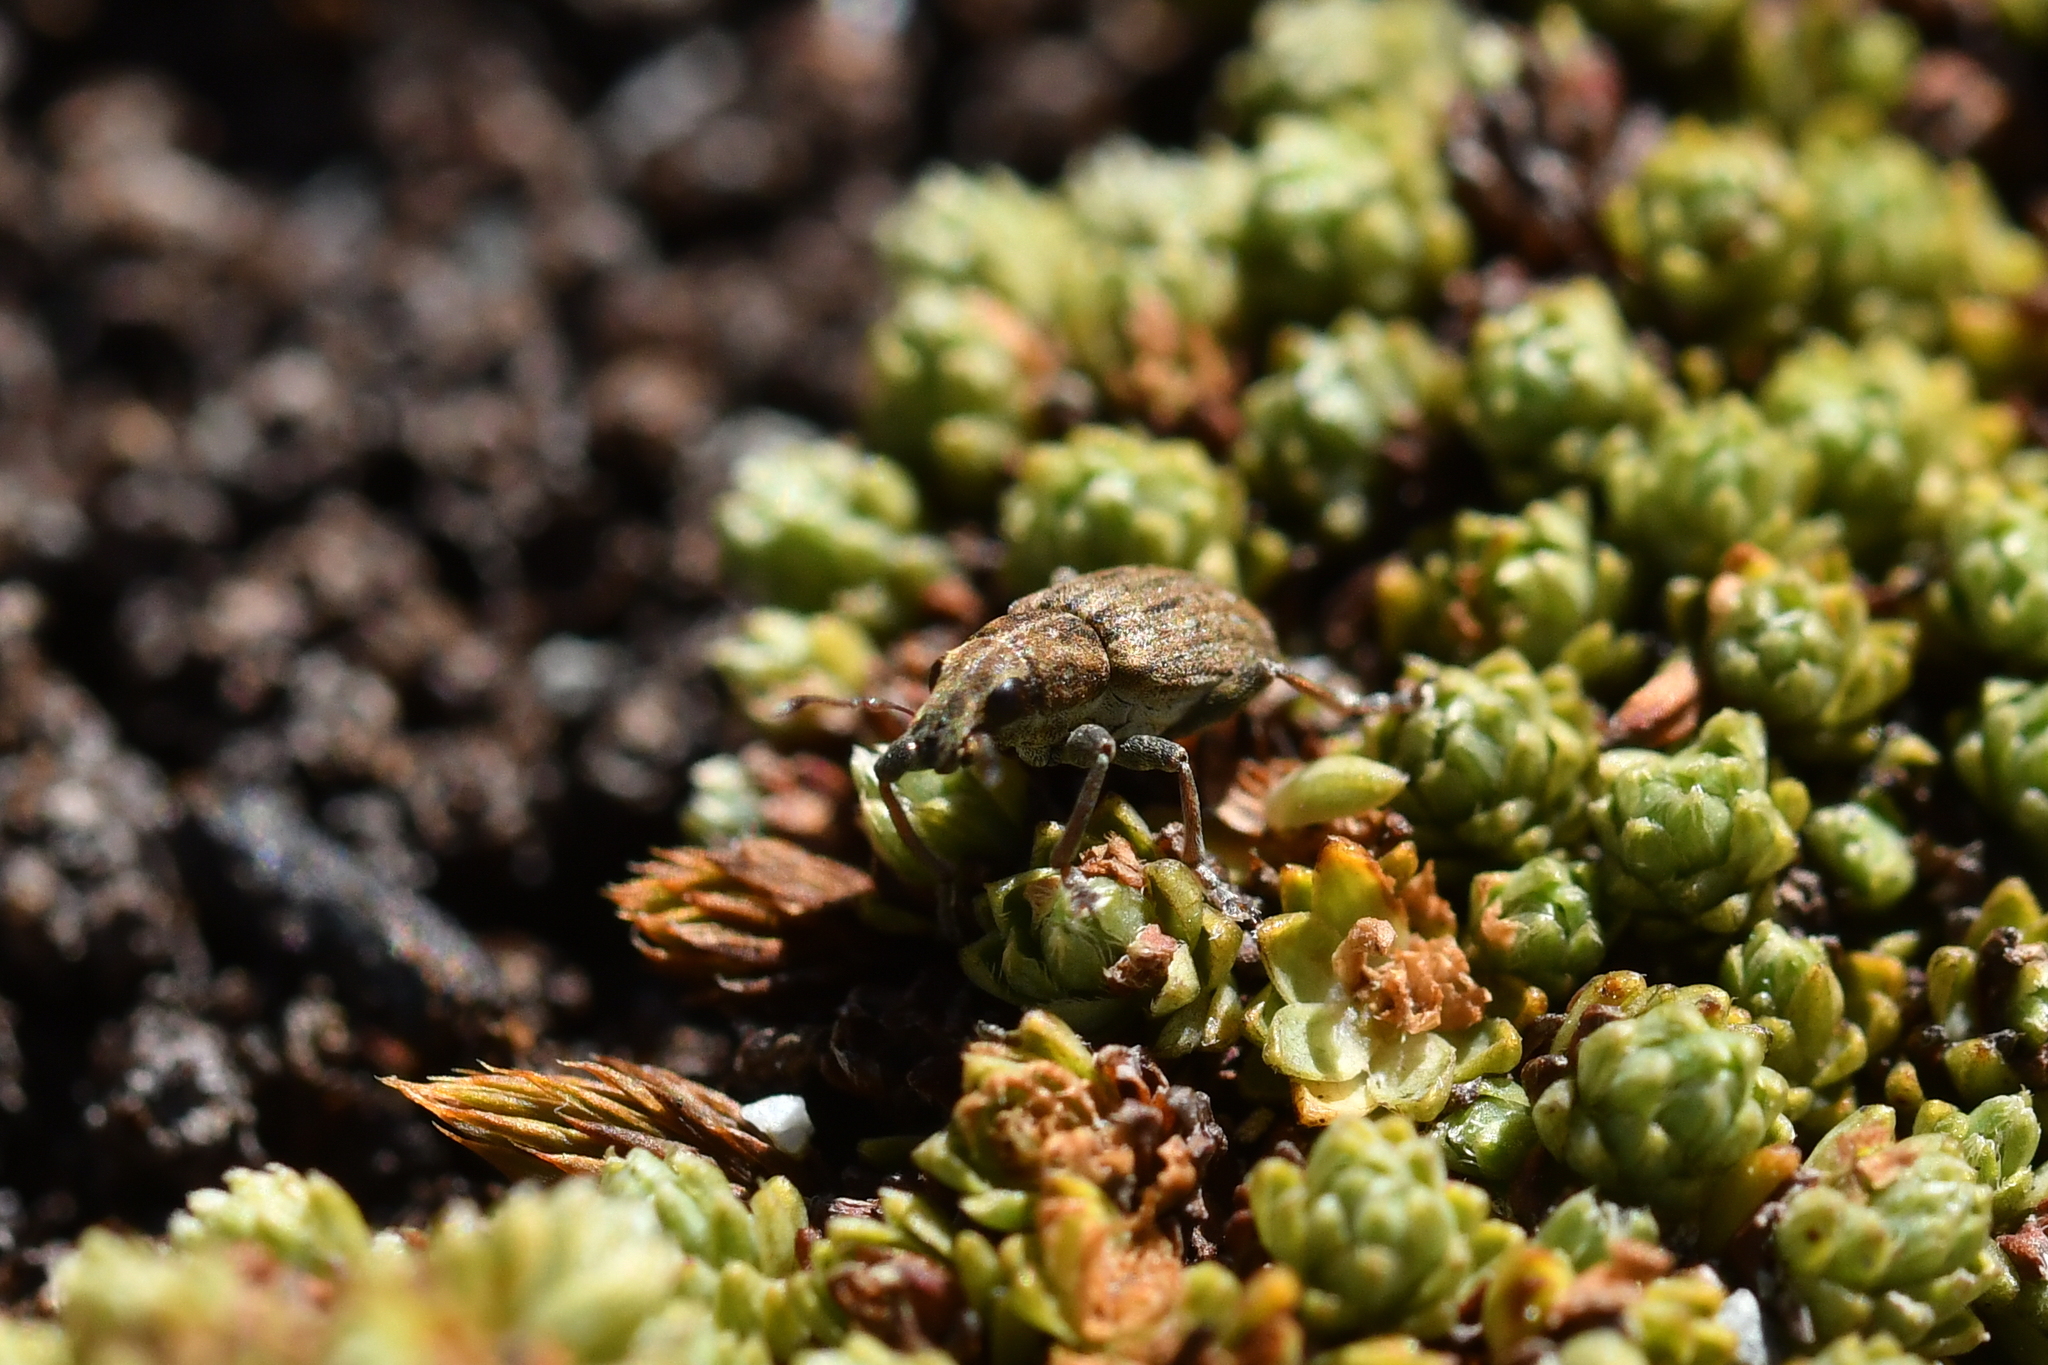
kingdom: Animalia
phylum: Arthropoda
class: Insecta
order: Coleoptera
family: Curculionidae
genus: Sitona
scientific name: Sitona obsoletus
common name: Weevil
